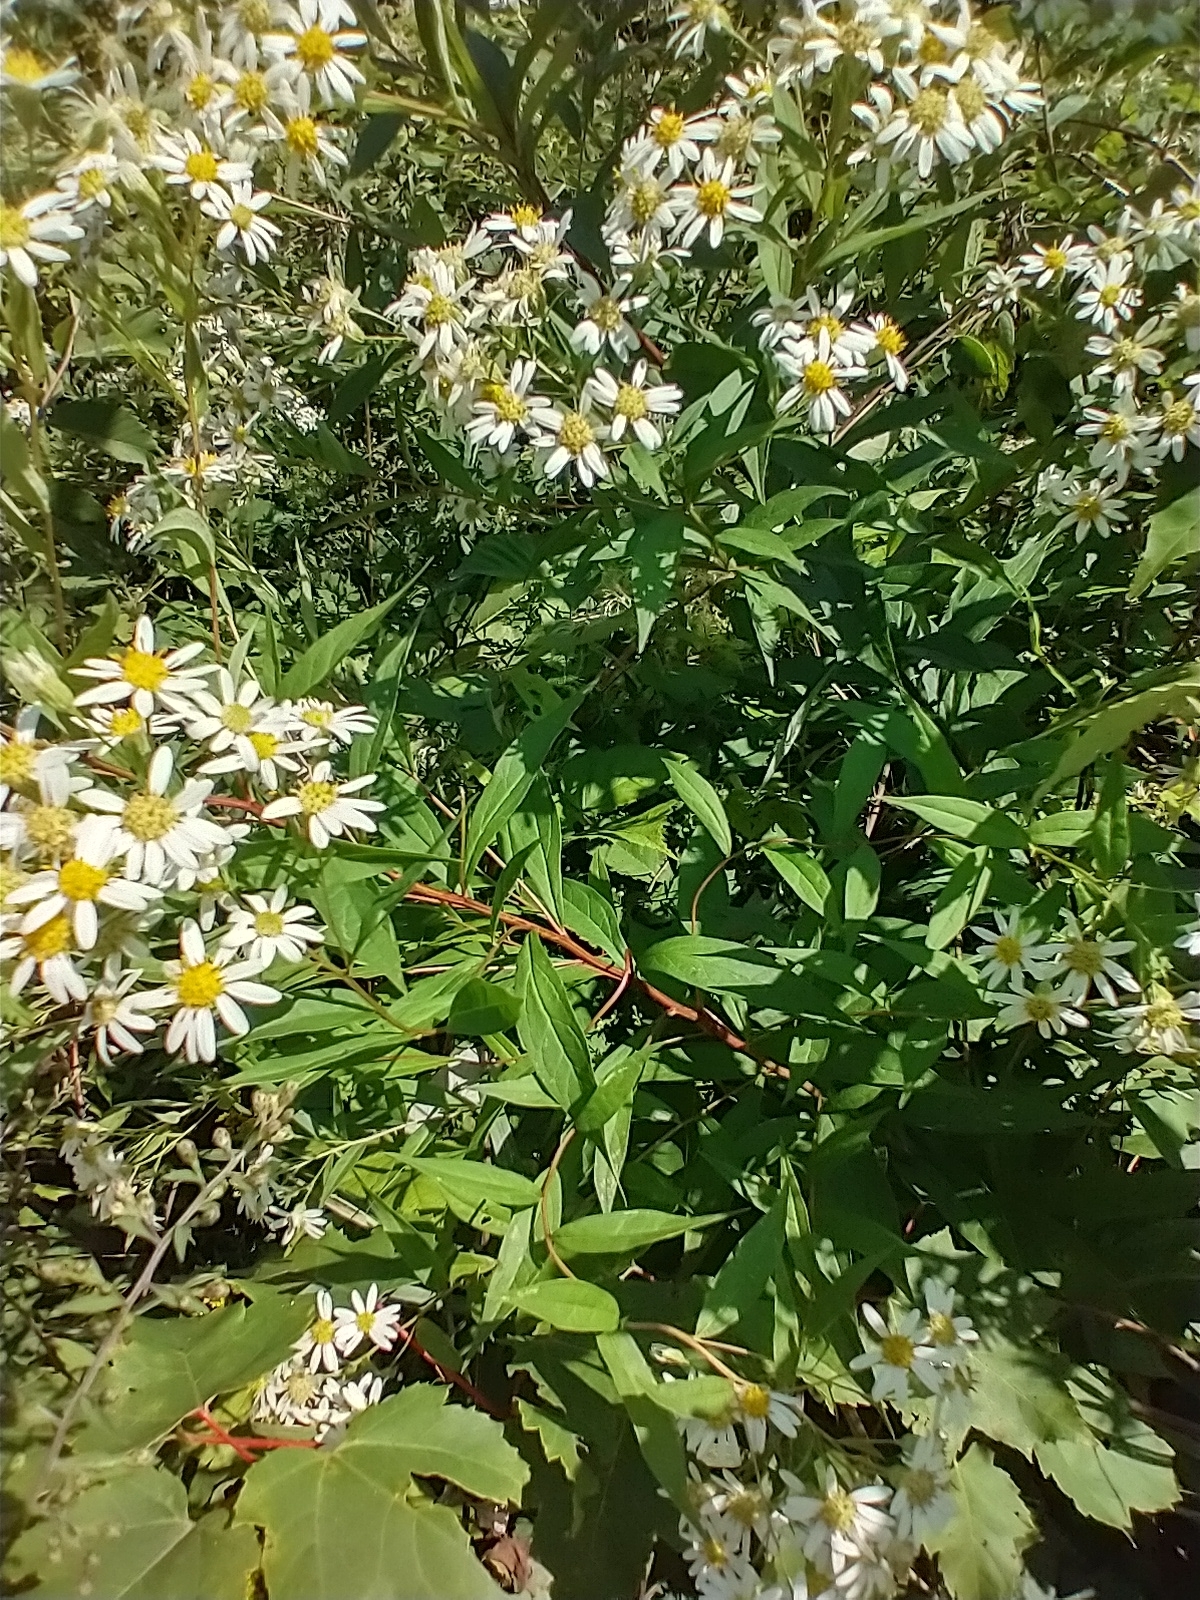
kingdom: Plantae
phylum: Tracheophyta
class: Magnoliopsida
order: Asterales
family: Asteraceae
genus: Doellingeria
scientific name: Doellingeria umbellata
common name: Flat-top white aster
